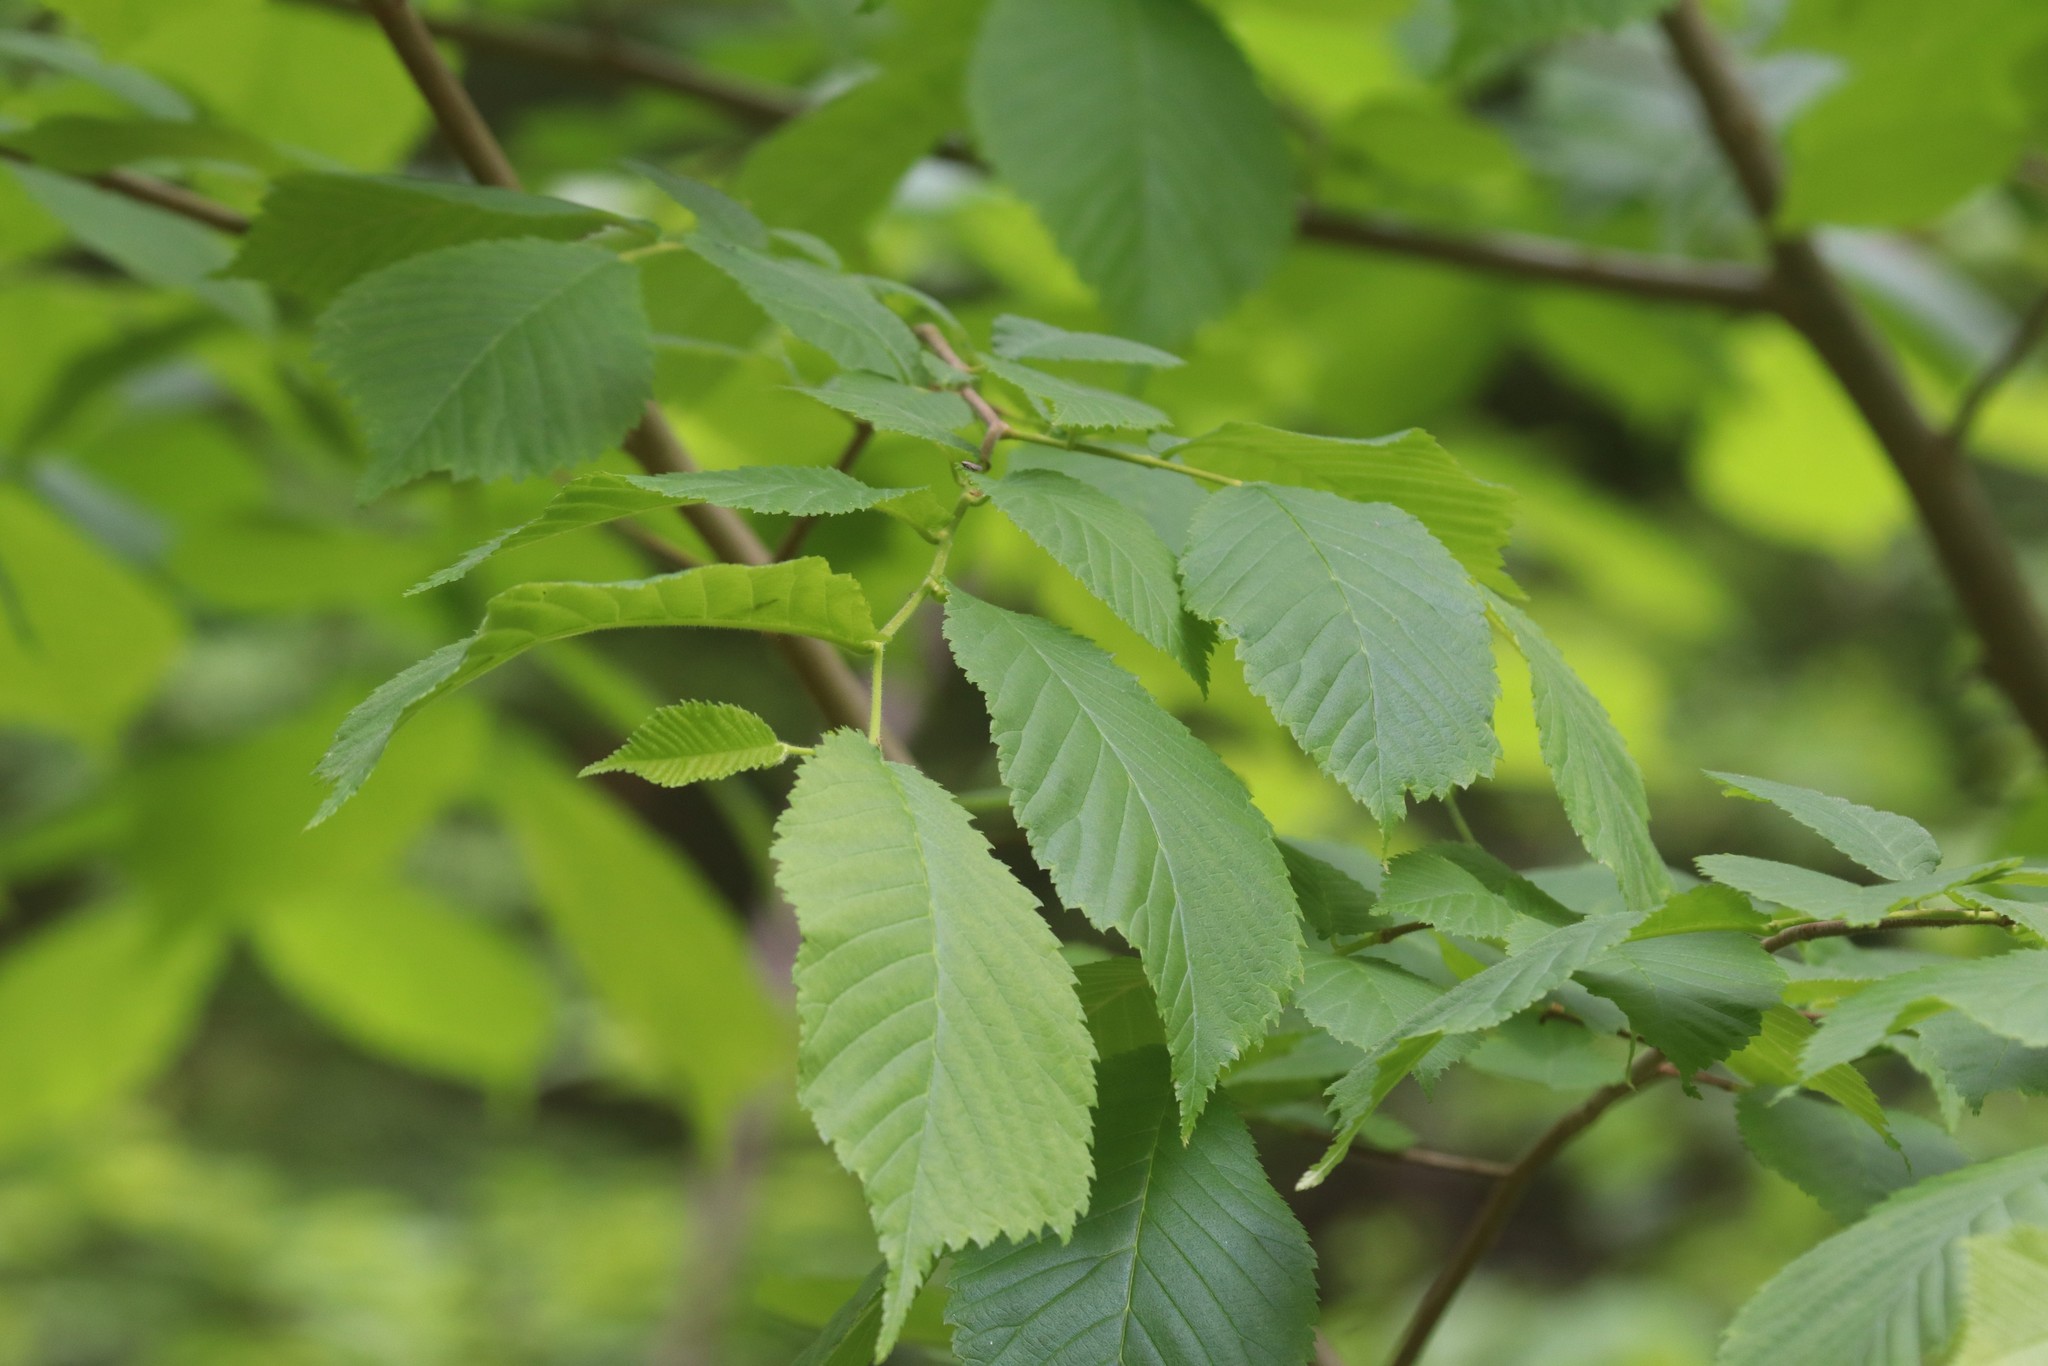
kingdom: Plantae
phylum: Tracheophyta
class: Magnoliopsida
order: Rosales
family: Ulmaceae
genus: Ulmus
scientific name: Ulmus glabra
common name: Wych elm
